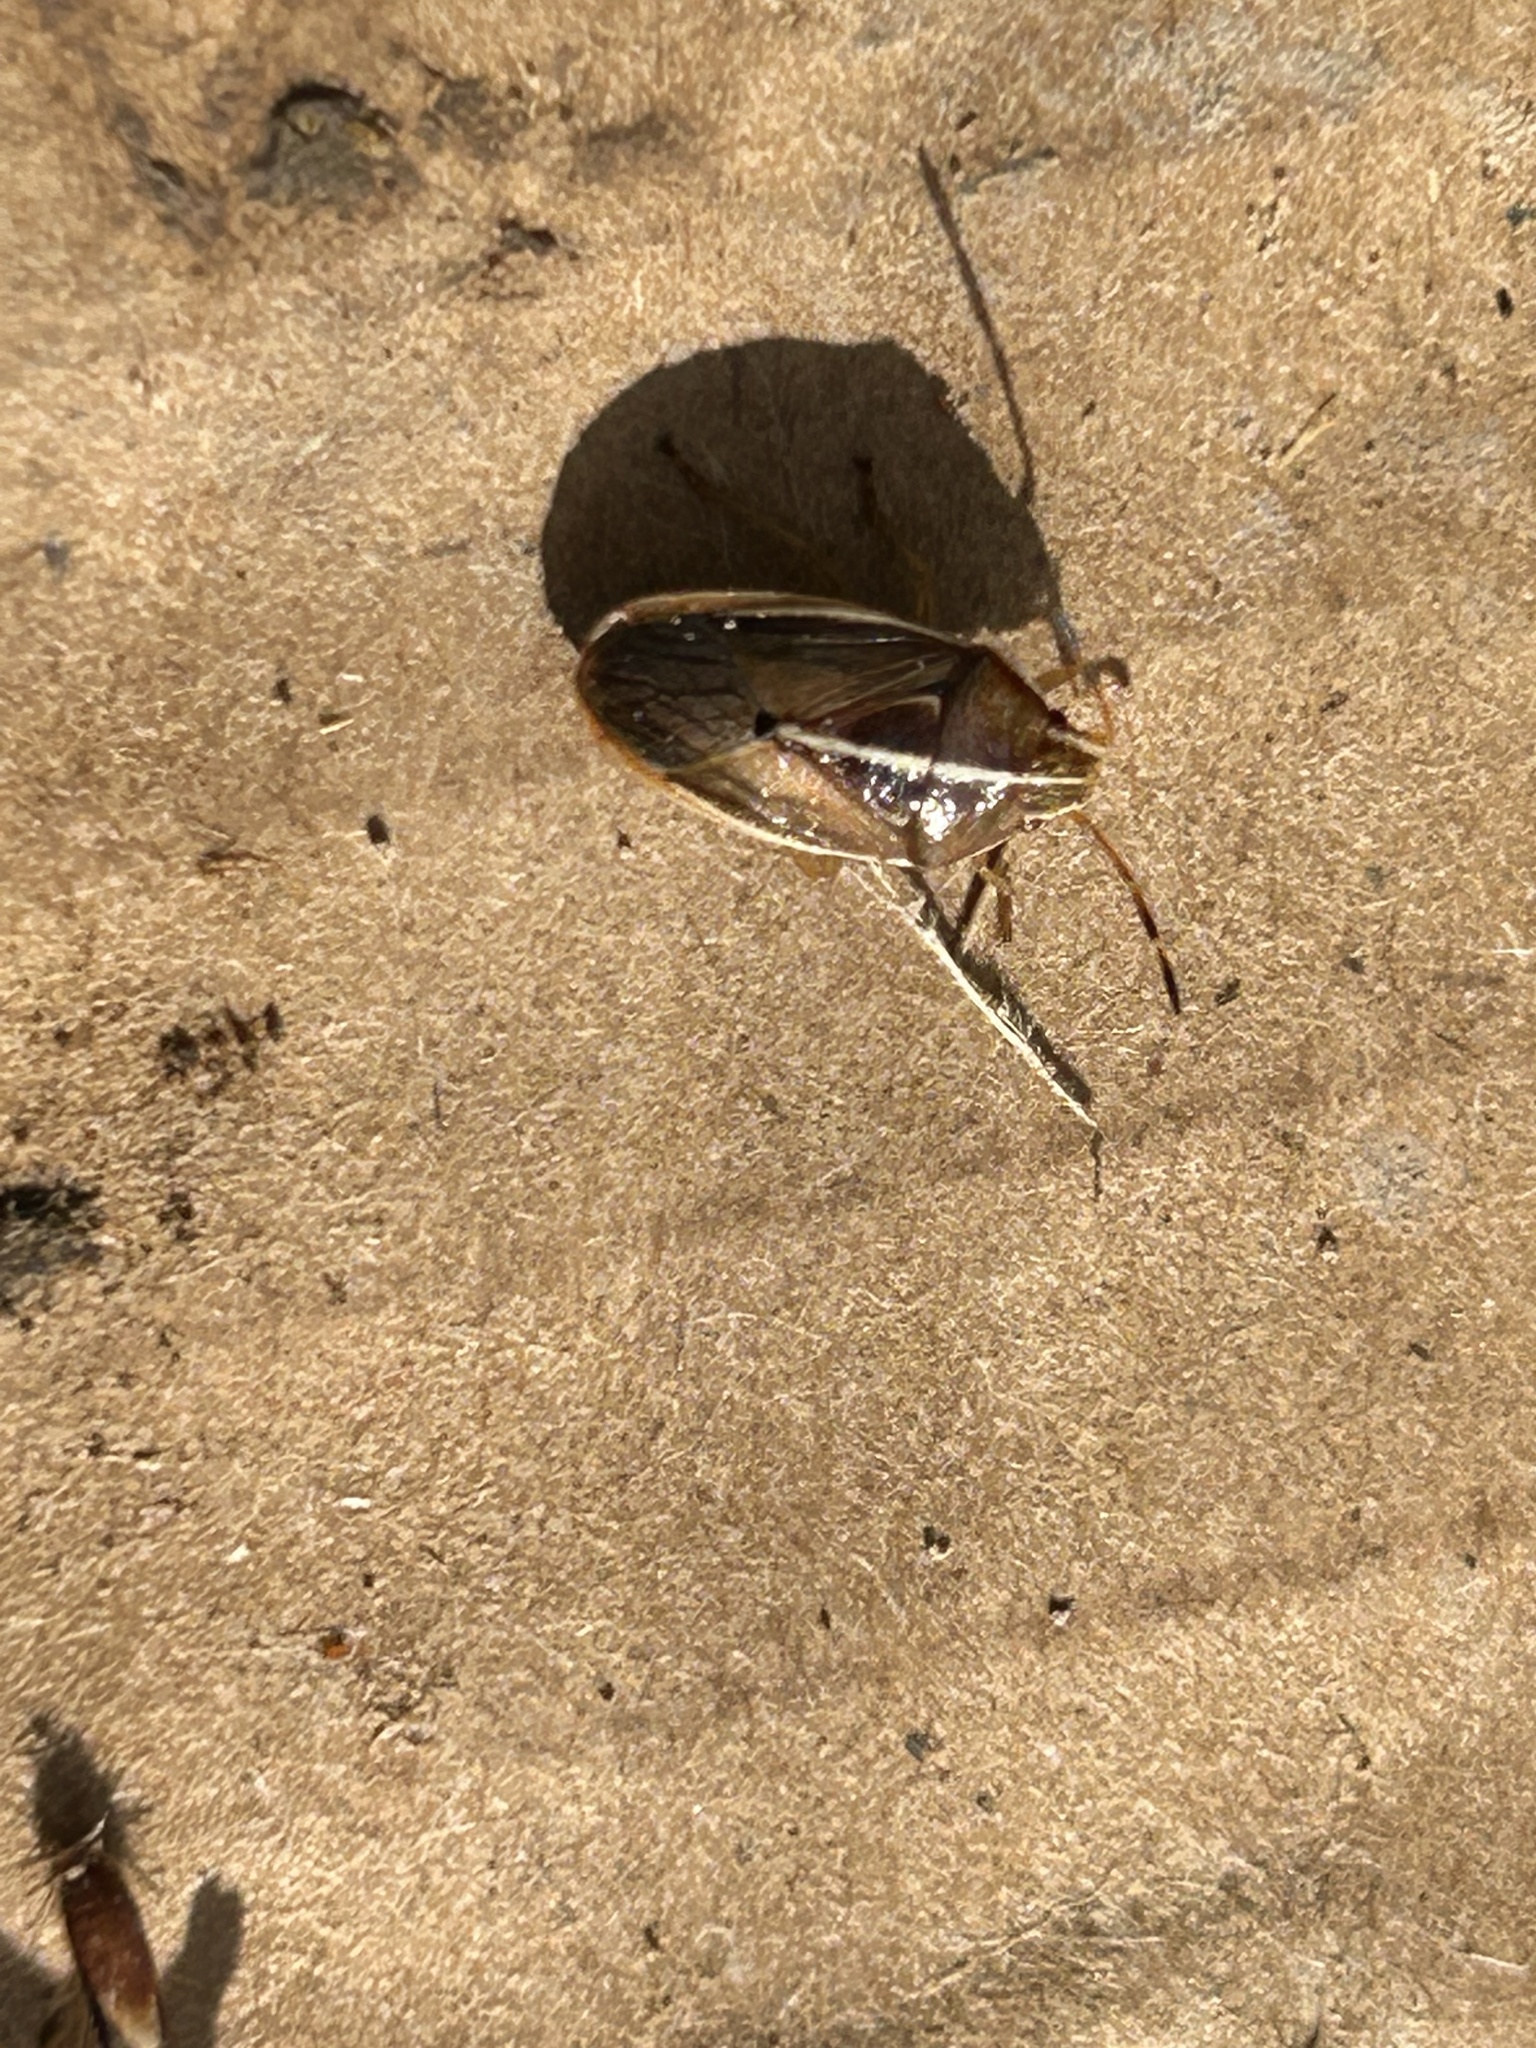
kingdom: Animalia
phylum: Arthropoda
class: Insecta
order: Hemiptera
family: Acanthosomatidae
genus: Rhopalimorpha
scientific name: Rhopalimorpha lineolaris
